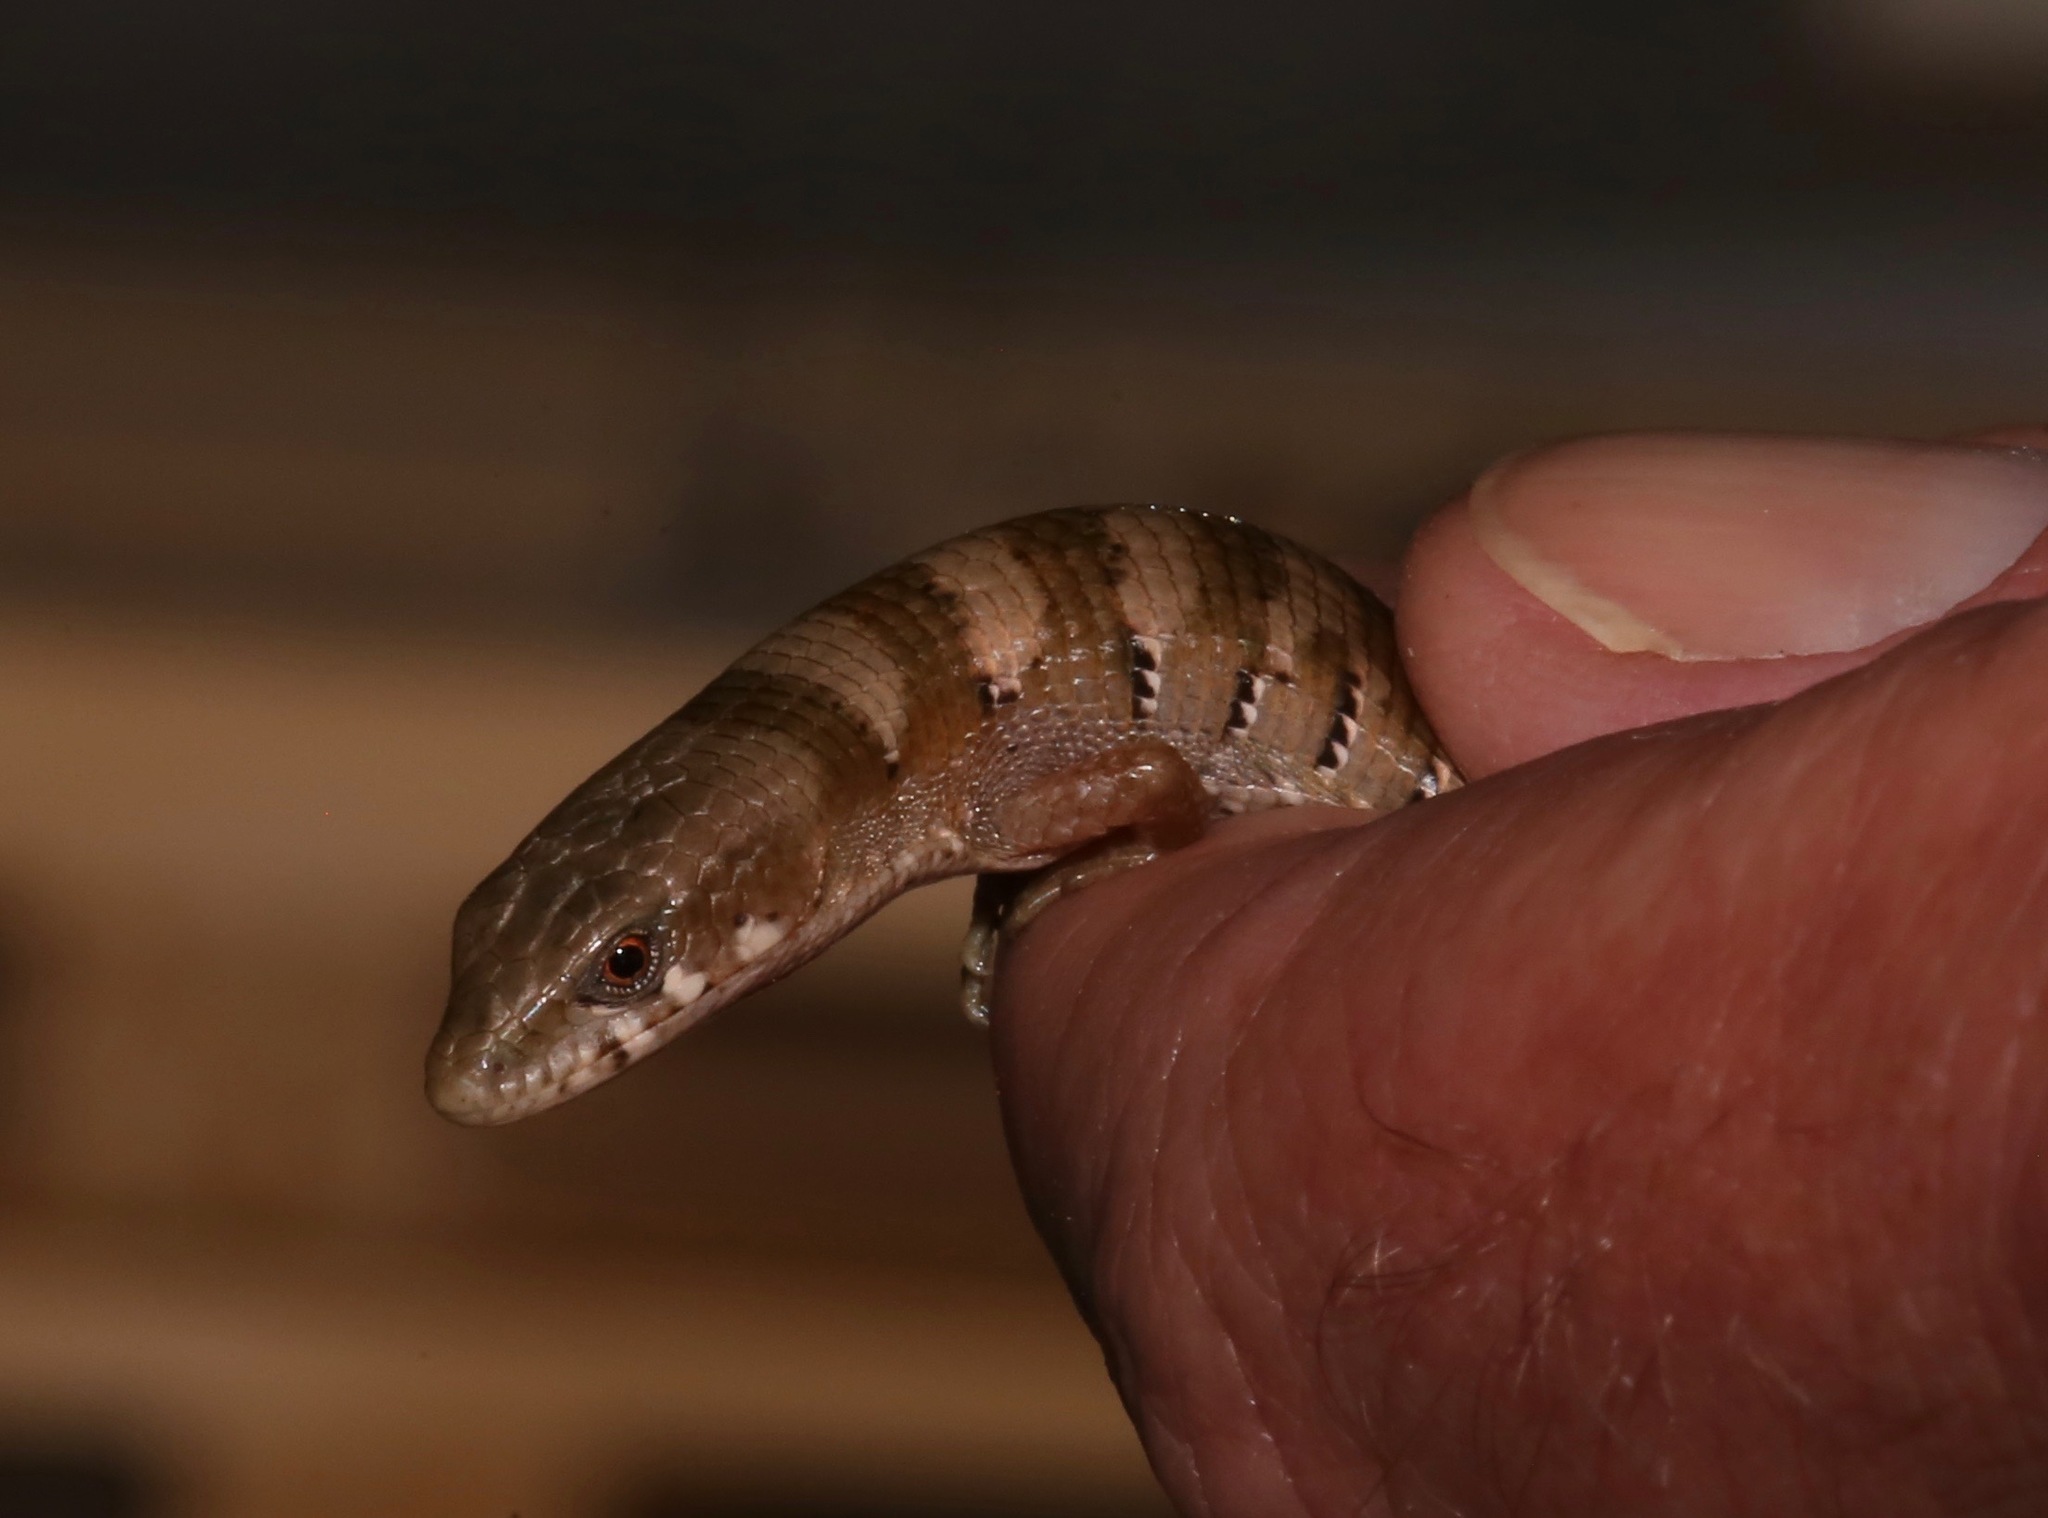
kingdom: Animalia
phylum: Chordata
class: Squamata
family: Anguidae
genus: Elgaria
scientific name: Elgaria kingii
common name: Madrean alligator lizard
